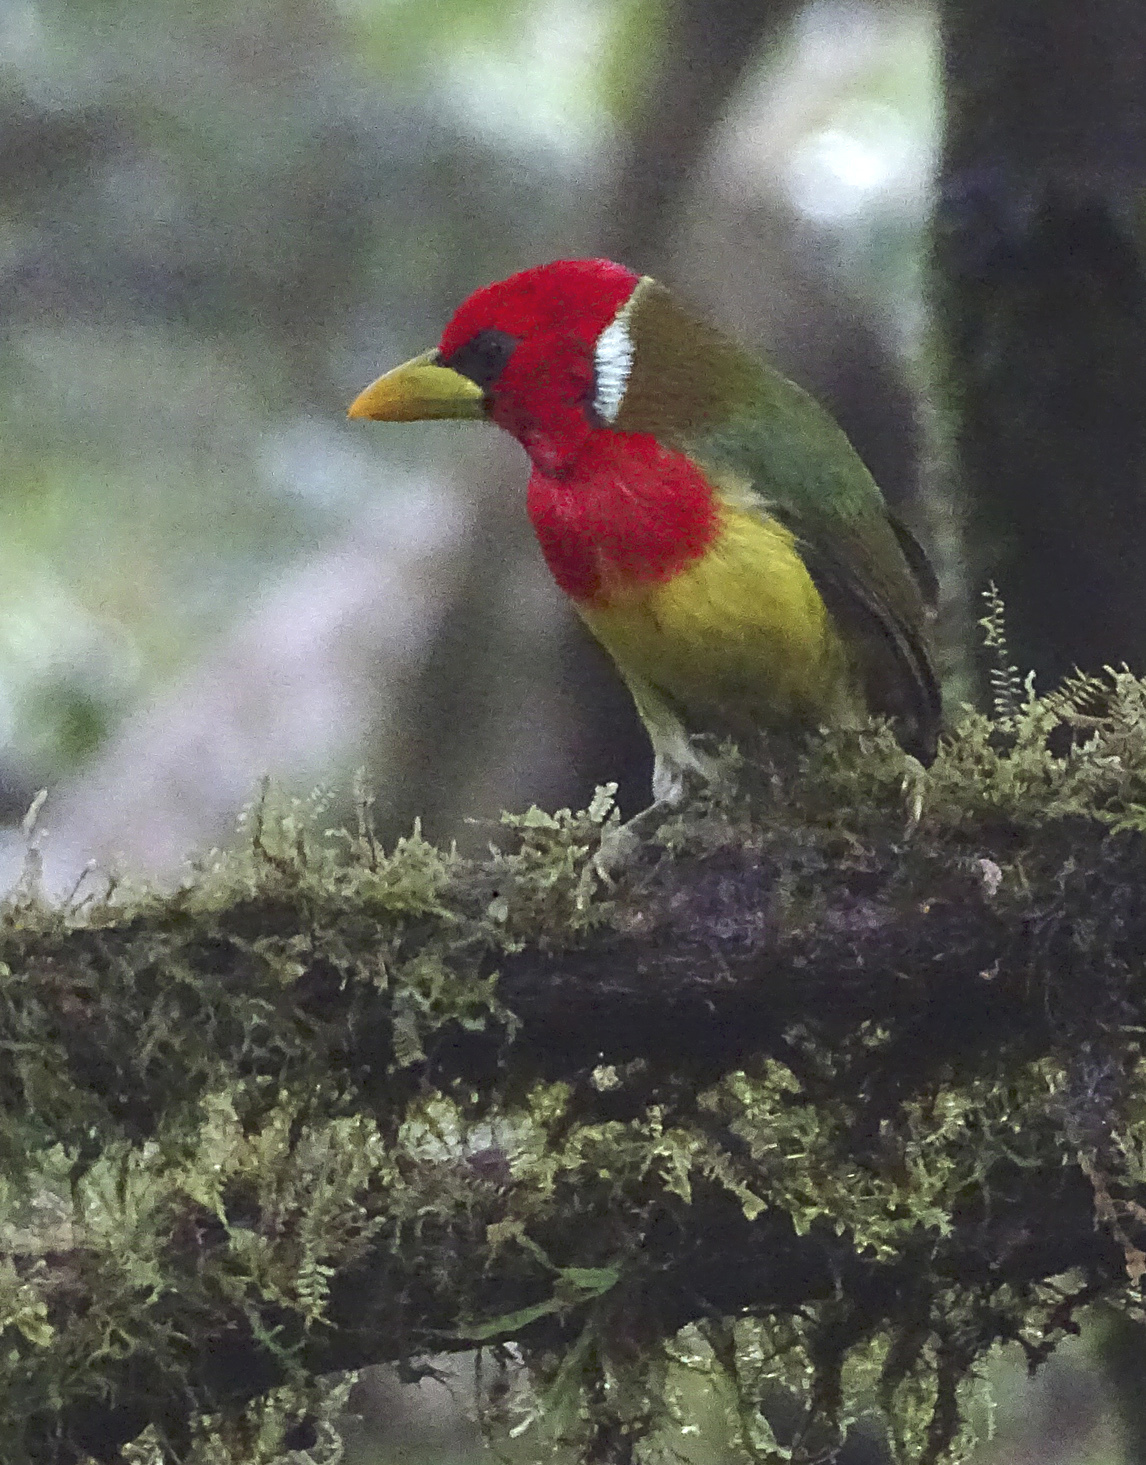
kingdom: Animalia
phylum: Chordata
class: Aves
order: Piciformes
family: Capitonidae
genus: Eubucco
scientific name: Eubucco bourcierii
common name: Red-headed barbet
